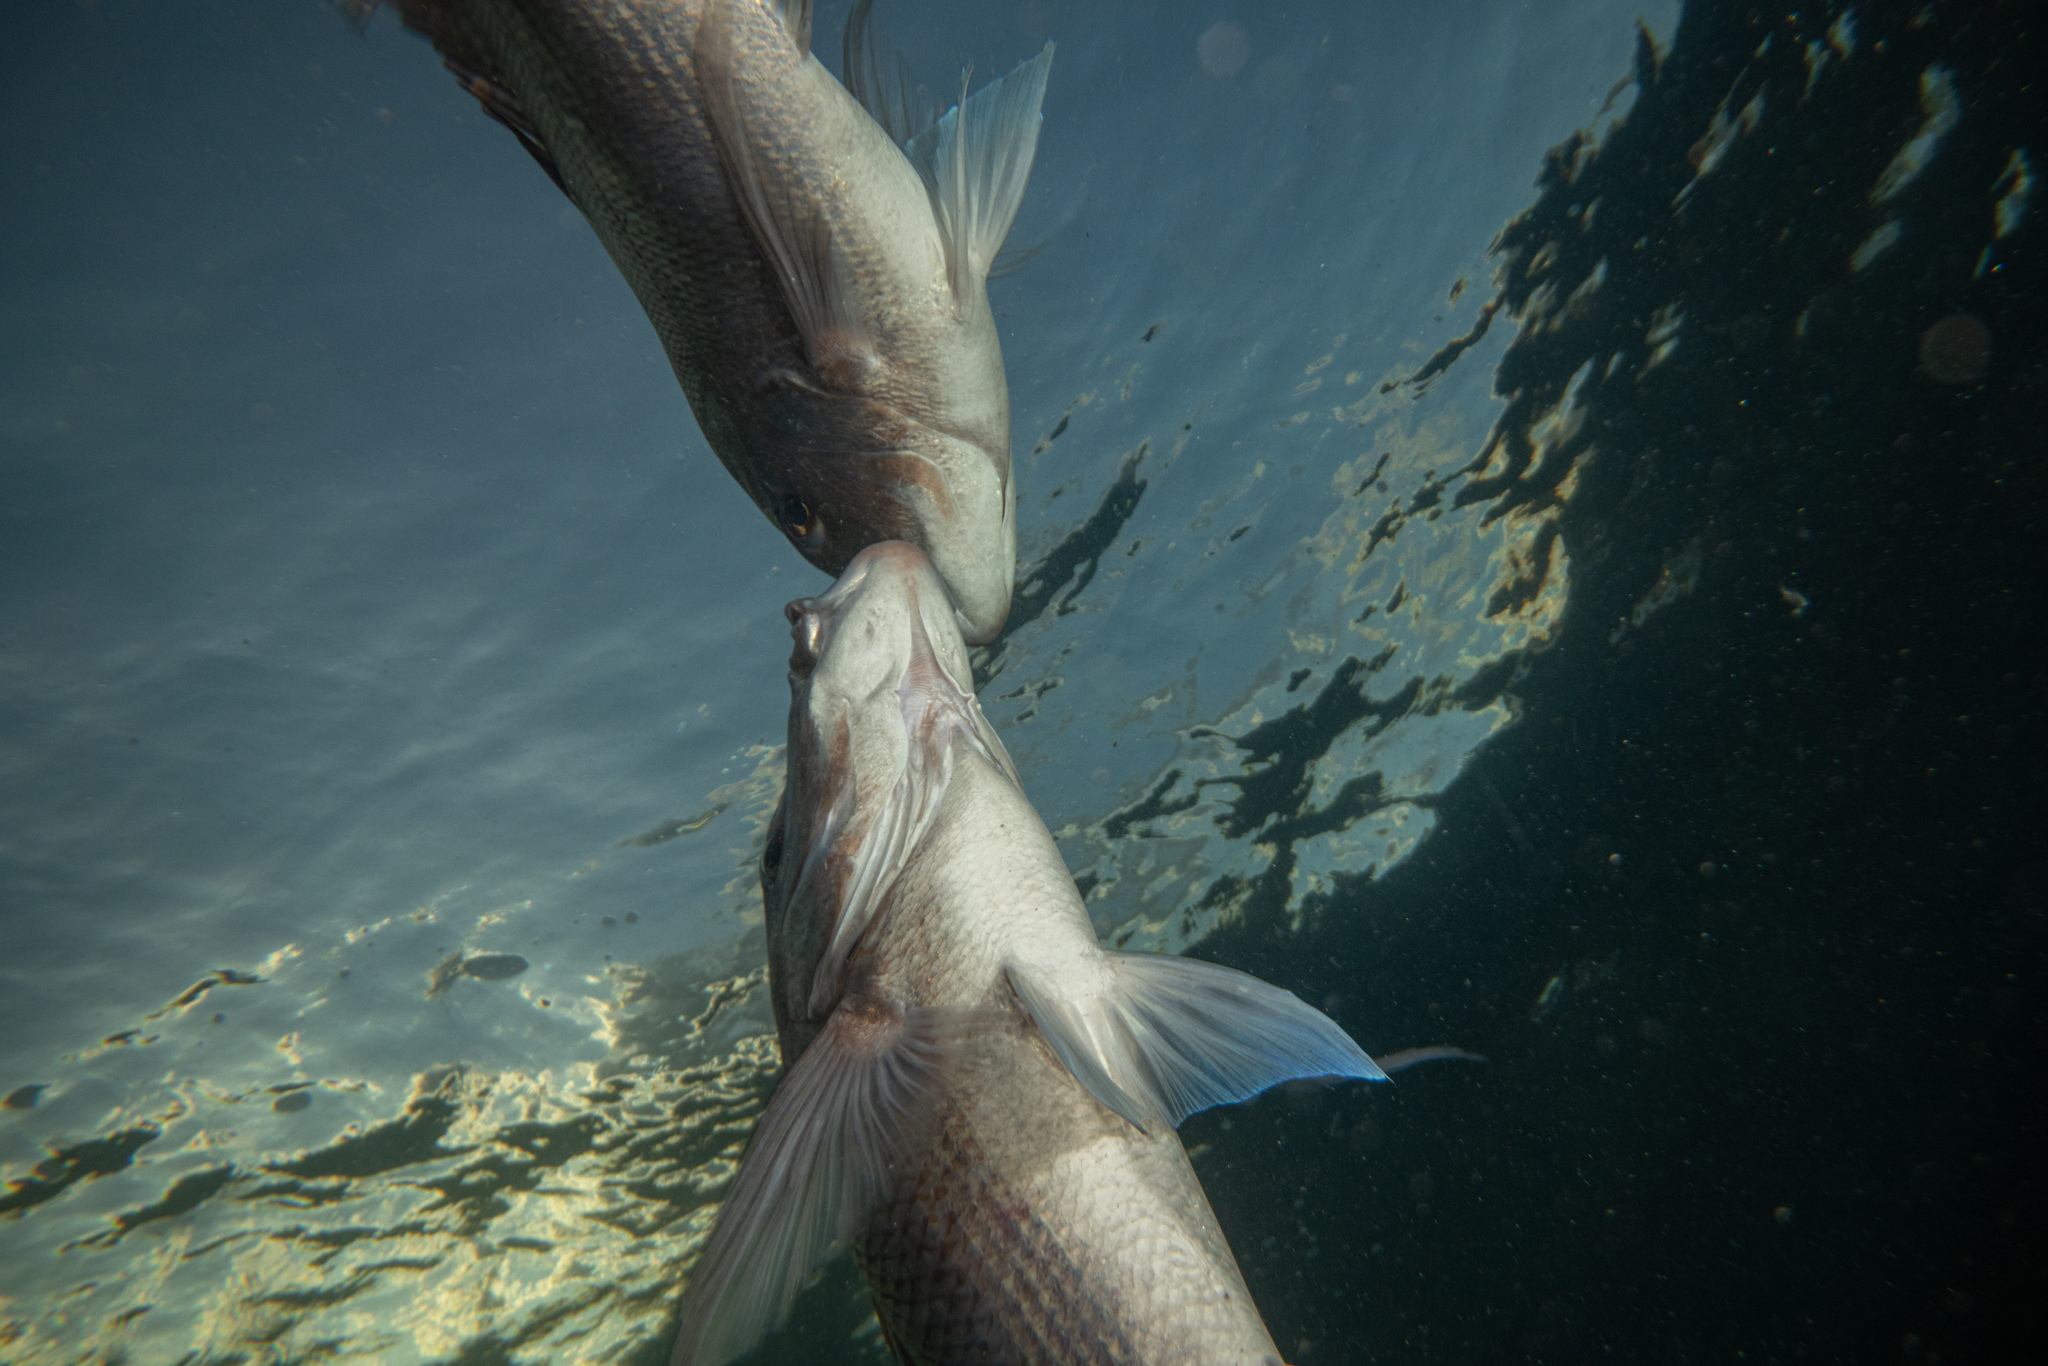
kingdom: Animalia
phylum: Chordata
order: Perciformes
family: Sparidae
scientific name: Sparidae
